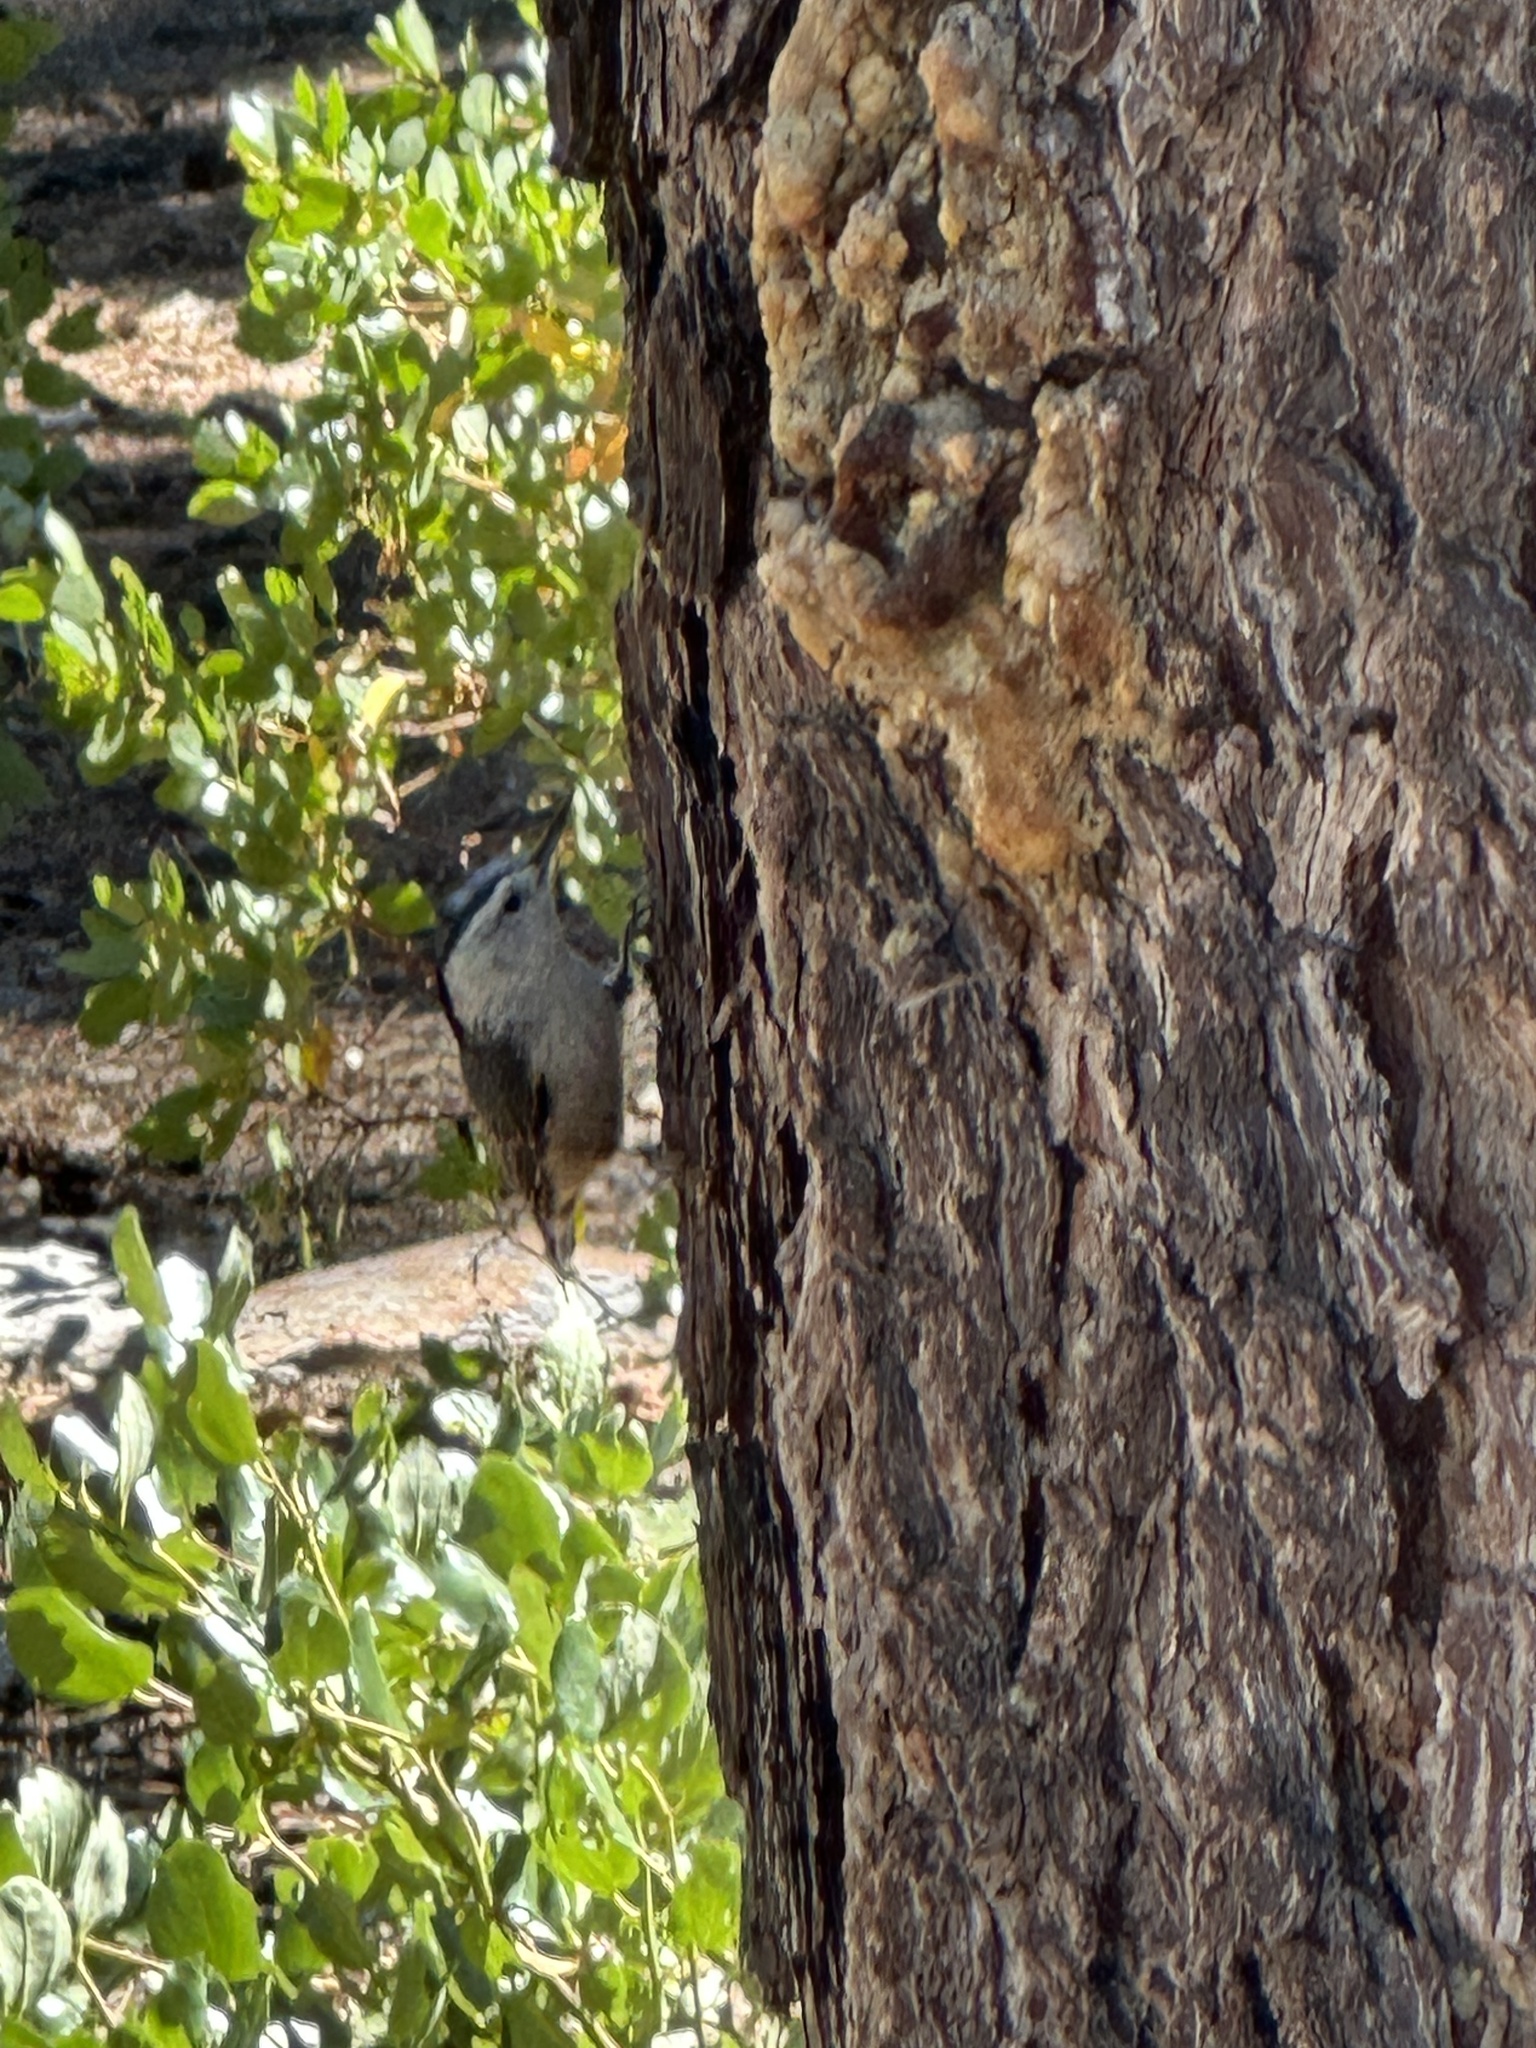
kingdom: Animalia
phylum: Chordata
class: Aves
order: Passeriformes
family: Sittidae
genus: Sitta
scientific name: Sitta carolinensis
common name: White-breasted nuthatch
